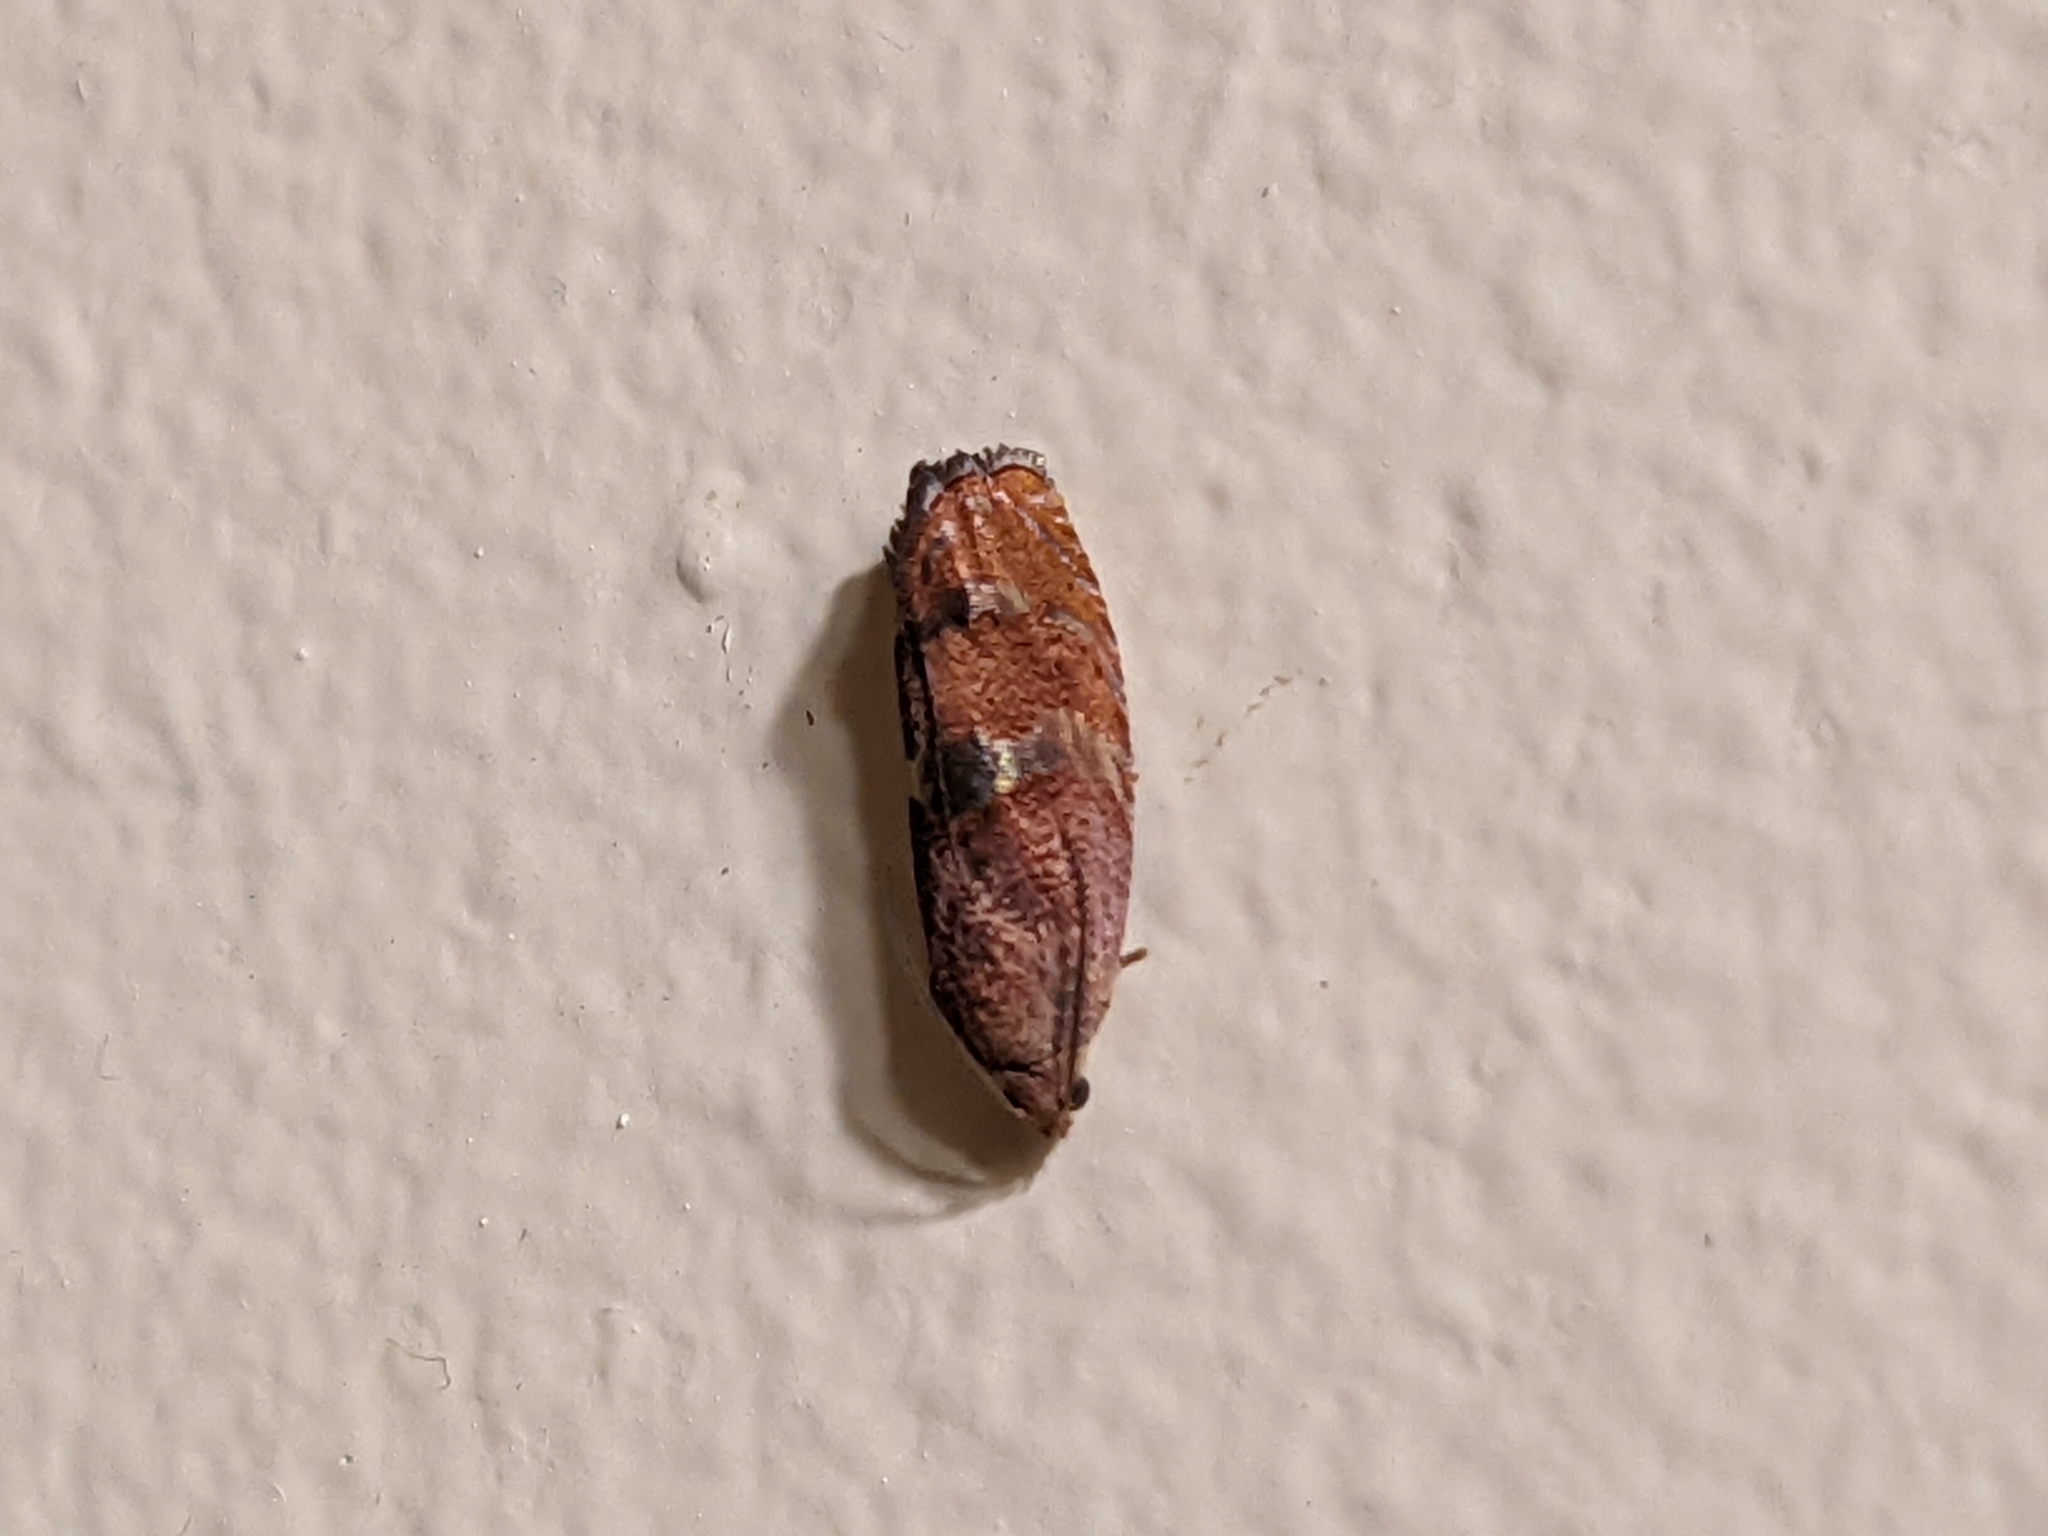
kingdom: Animalia
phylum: Arthropoda
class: Insecta
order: Lepidoptera
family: Tortricidae
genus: Cydia
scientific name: Cydia latiferreana
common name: Filbertworm moth
